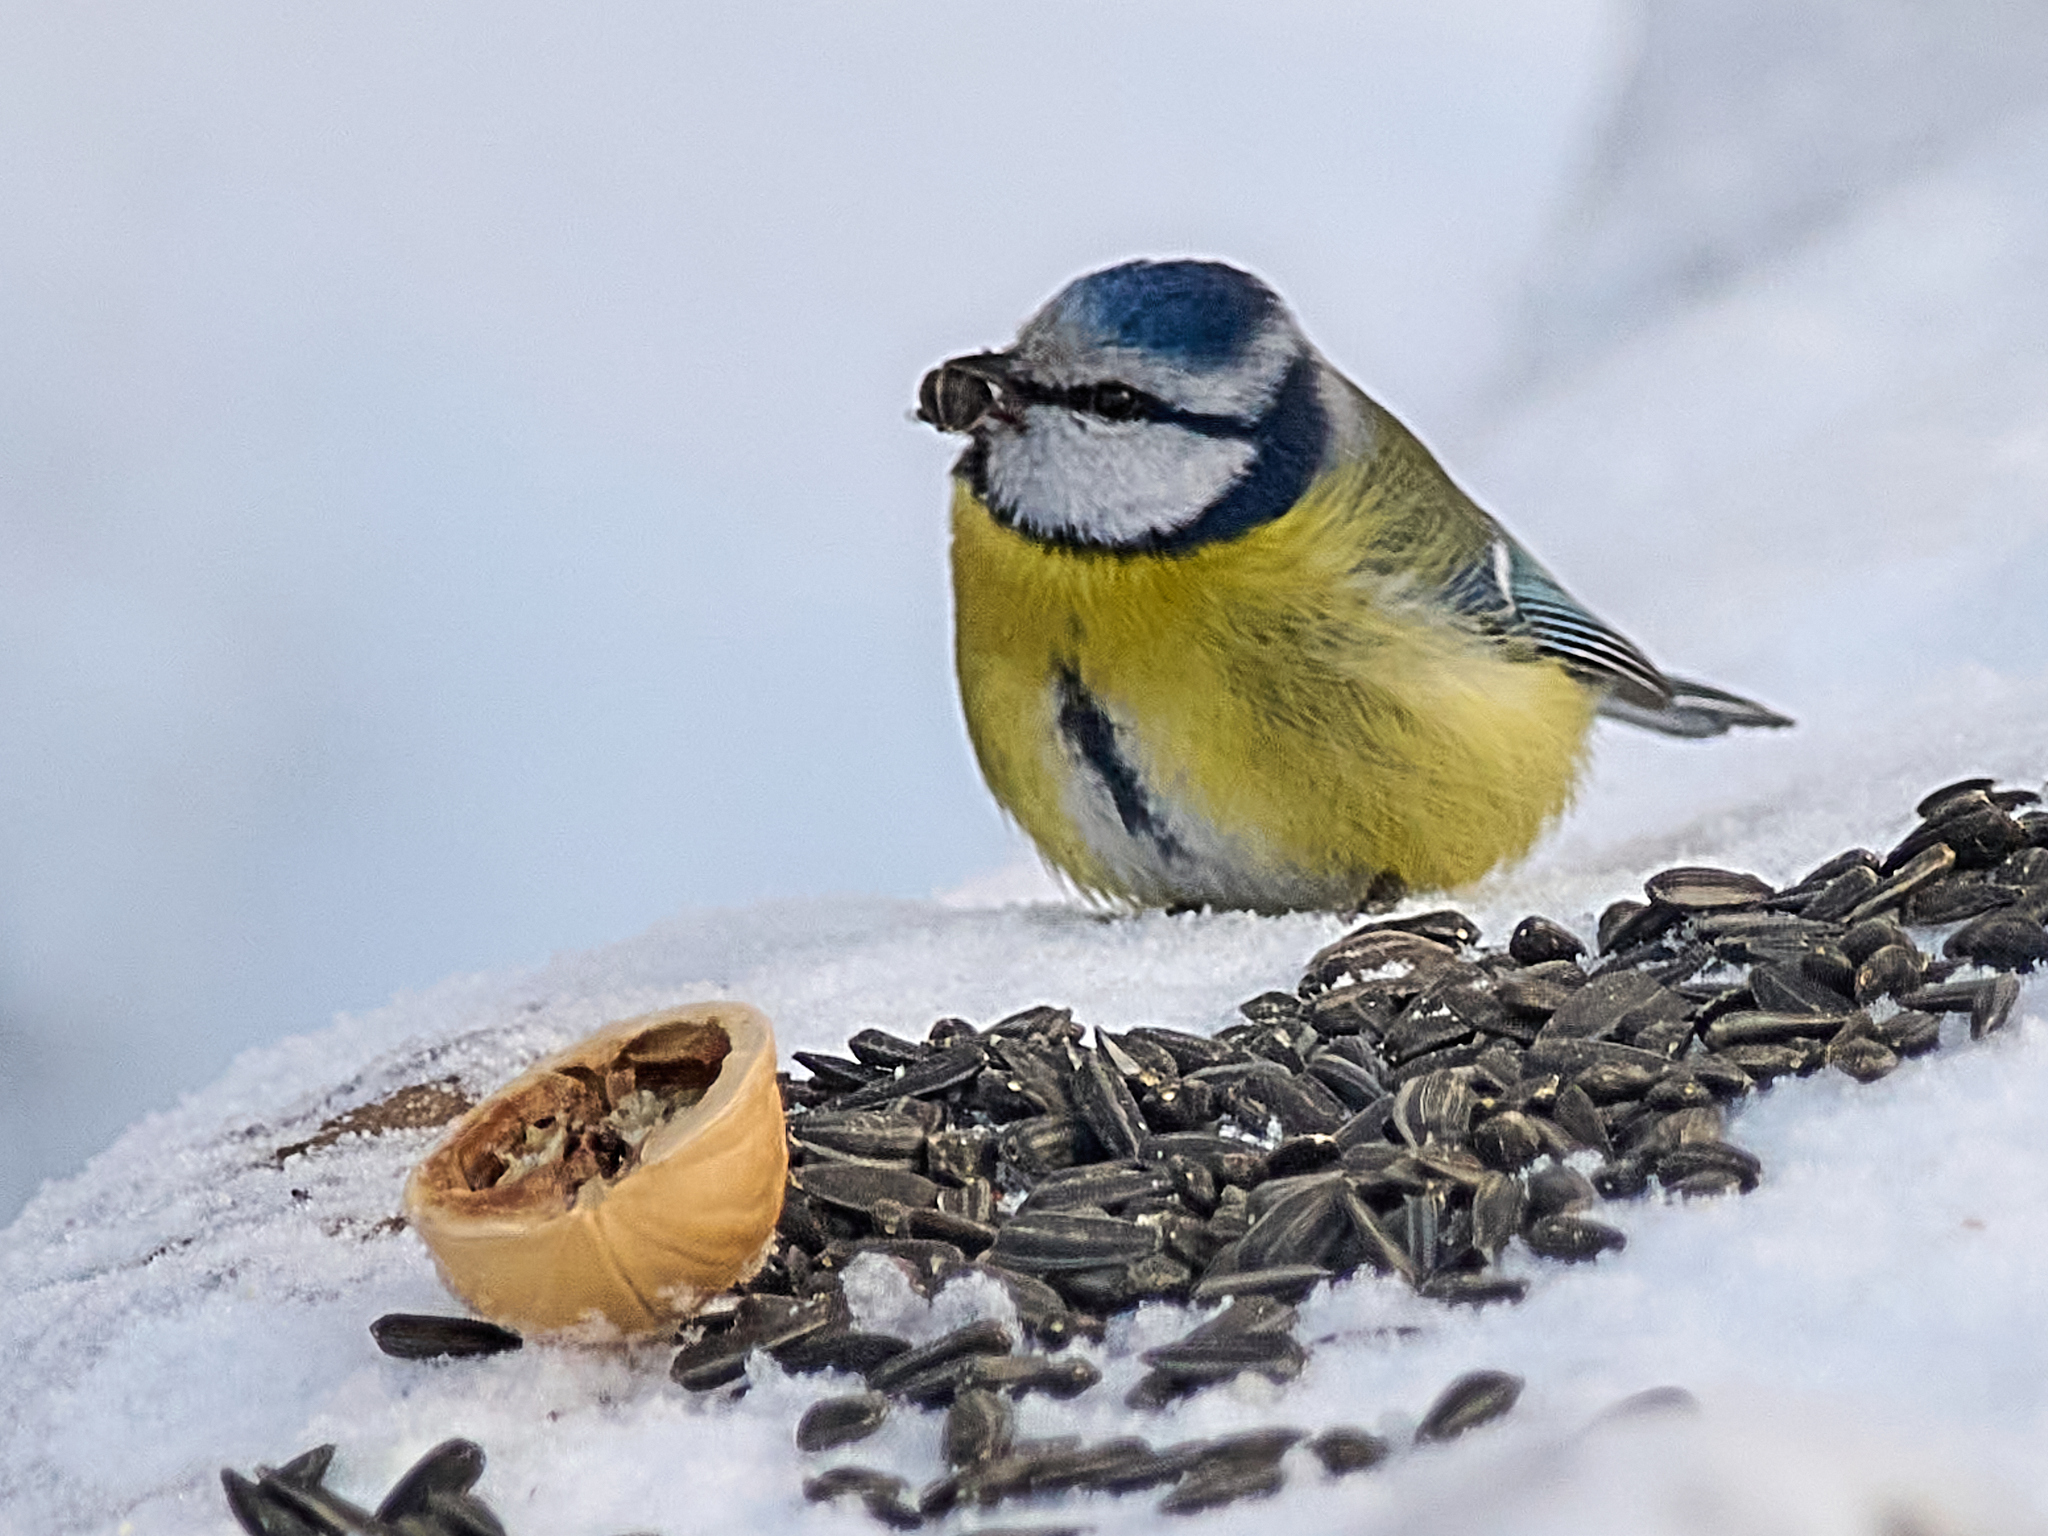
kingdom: Animalia
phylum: Chordata
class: Aves
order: Passeriformes
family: Paridae
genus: Cyanistes
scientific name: Cyanistes caeruleus
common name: Eurasian blue tit
